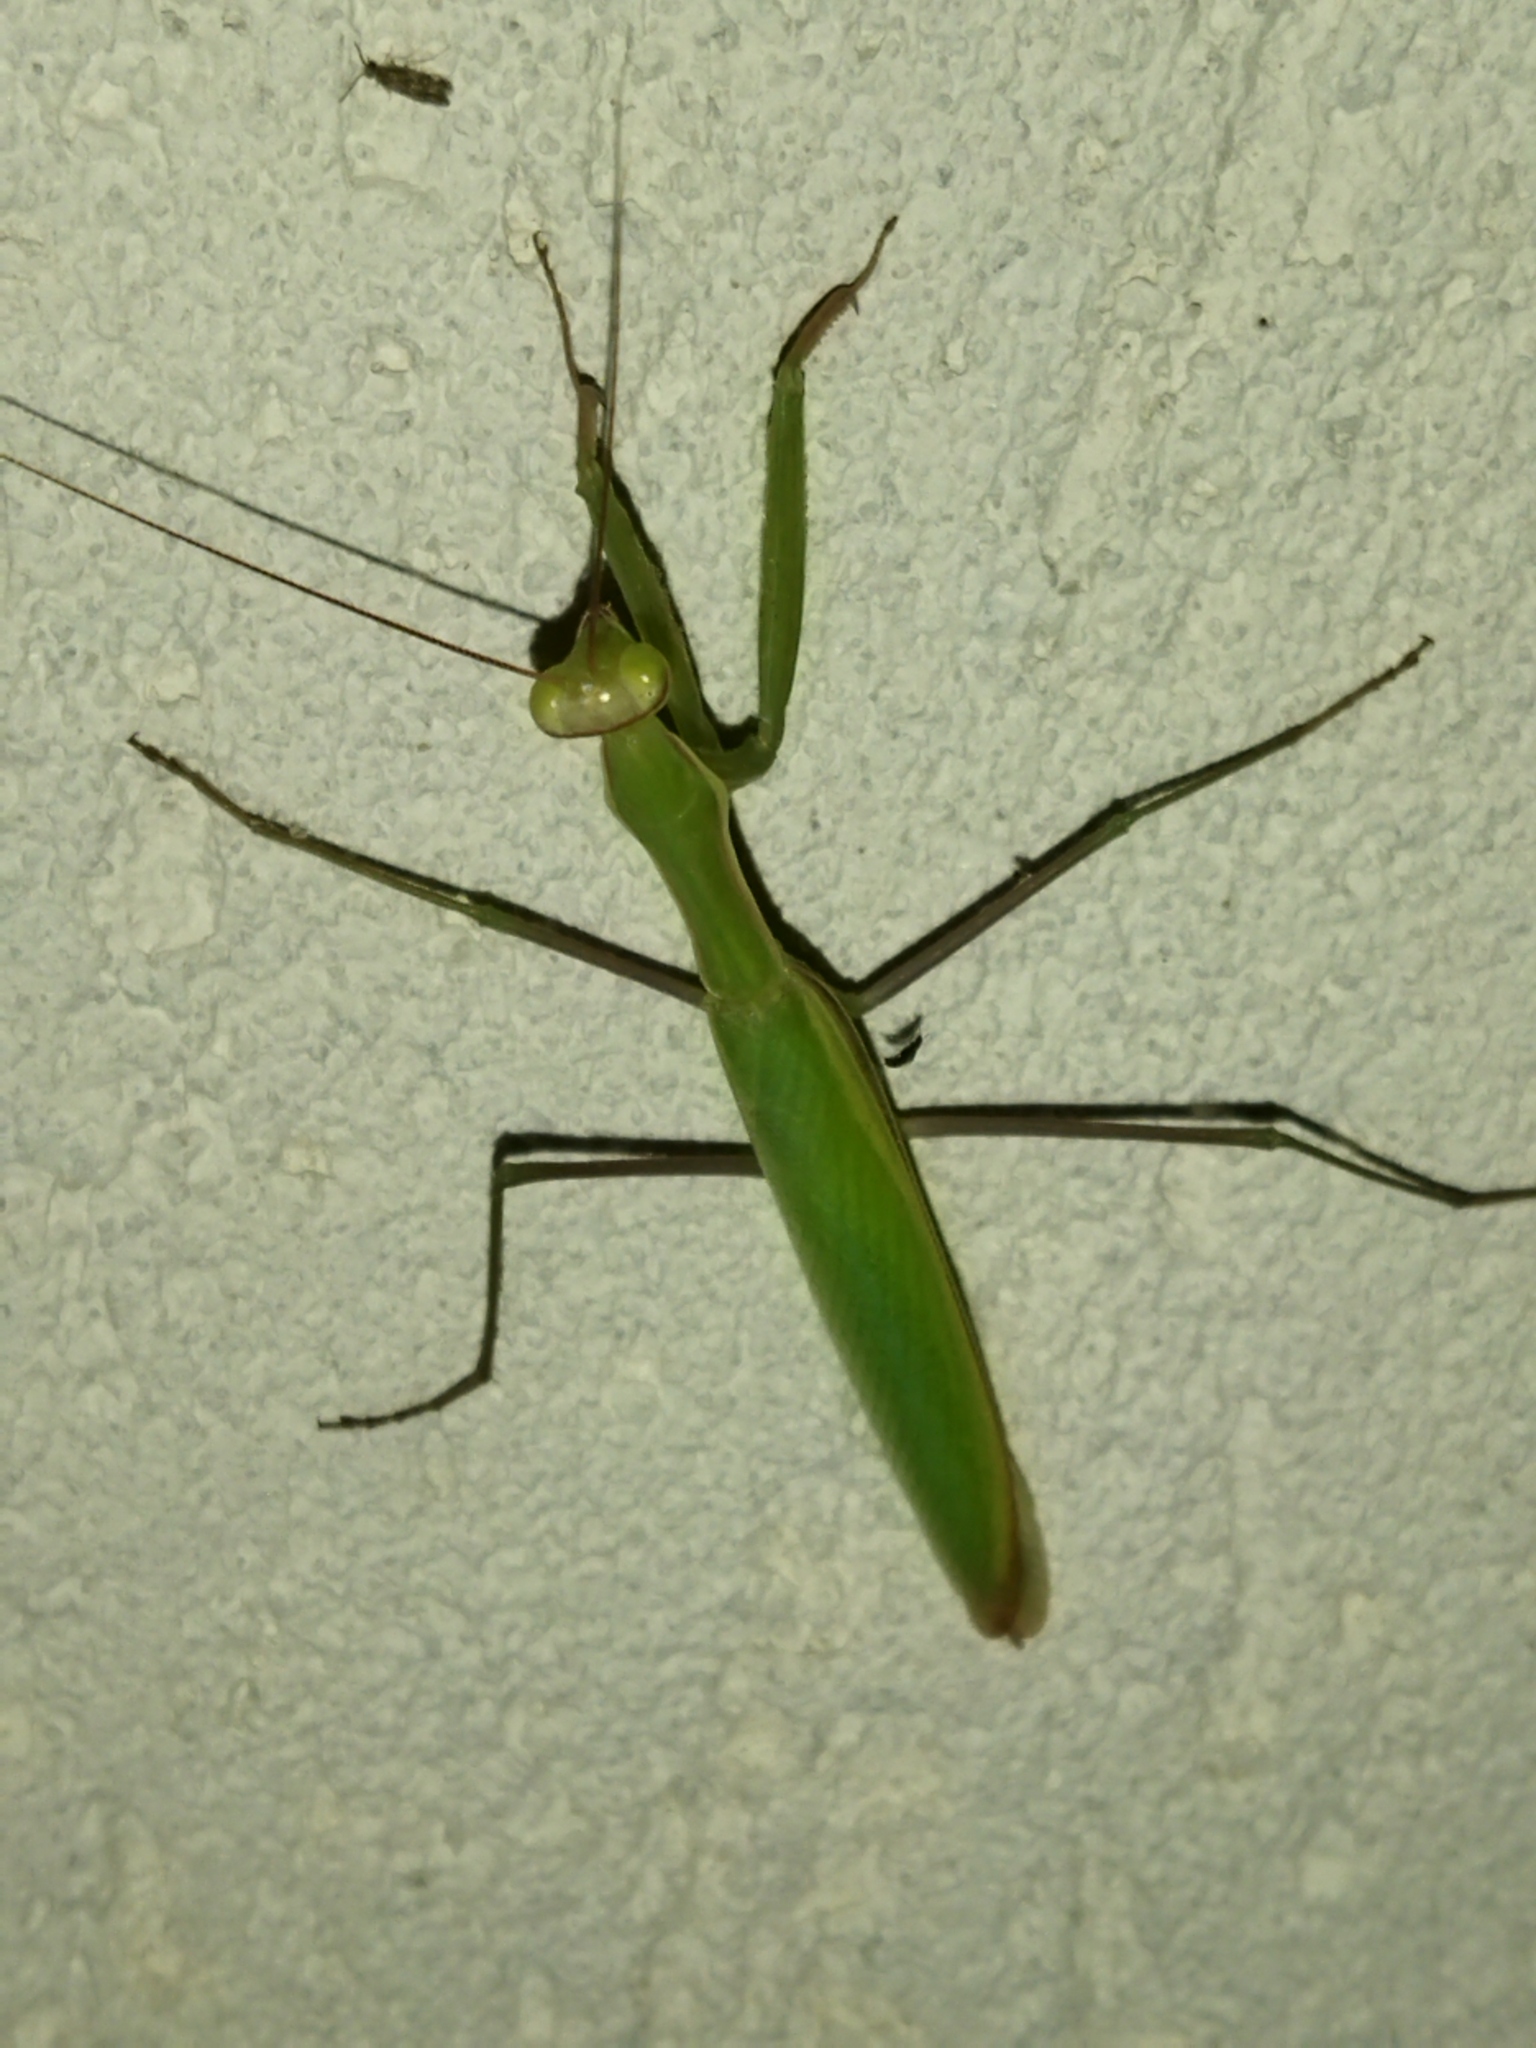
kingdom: Animalia
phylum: Arthropoda
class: Insecta
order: Mantodea
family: Mantidae
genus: Mantis
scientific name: Mantis religiosa
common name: Praying mantis
